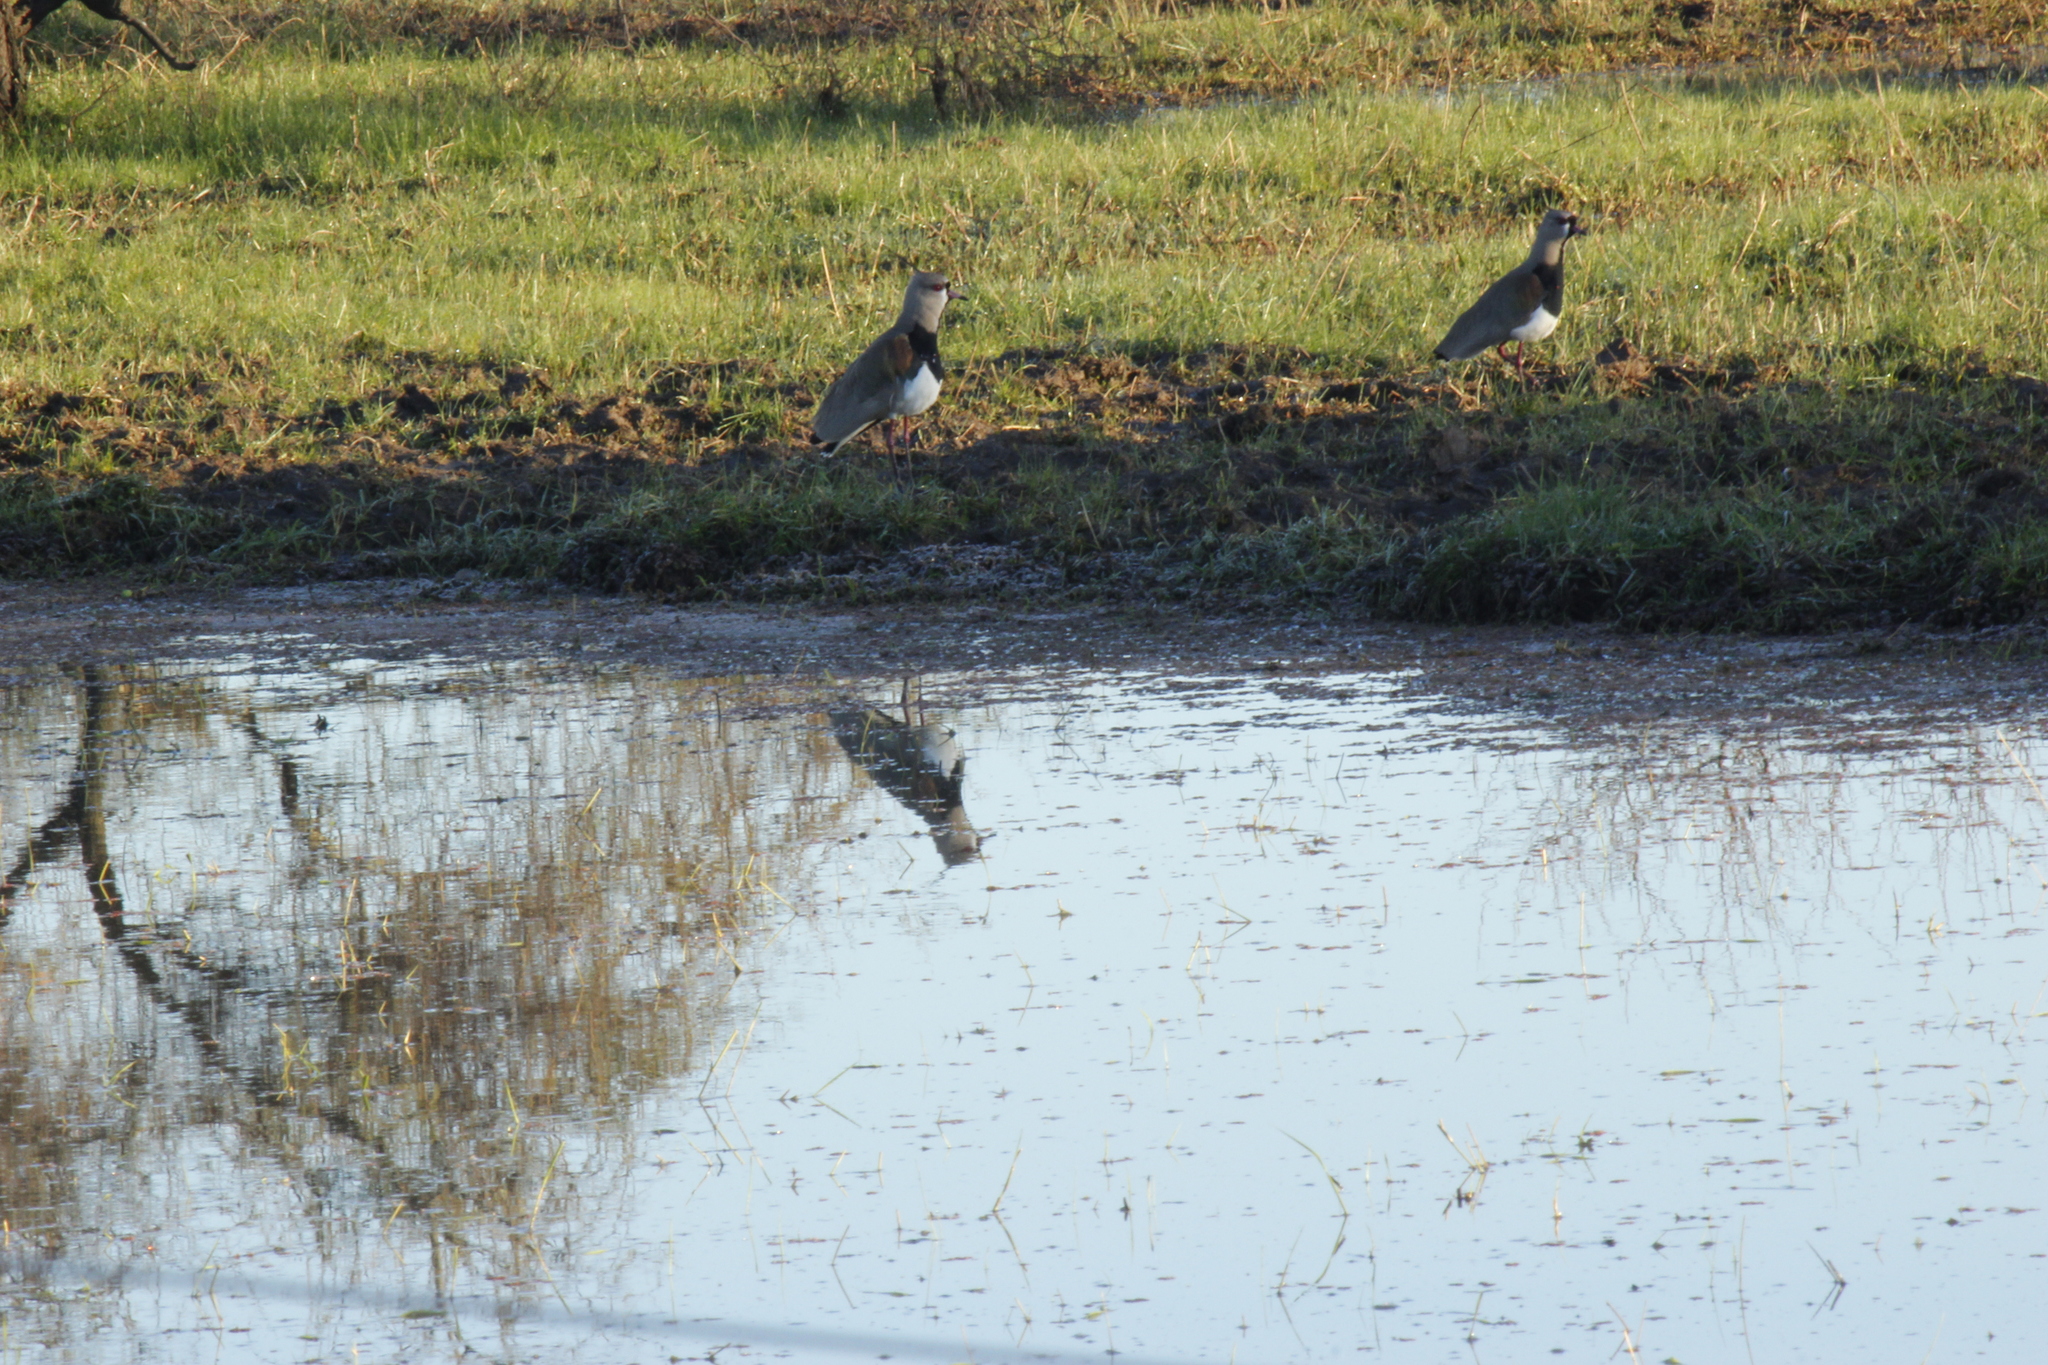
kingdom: Animalia
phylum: Chordata
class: Aves
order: Charadriiformes
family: Charadriidae
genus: Vanellus
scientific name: Vanellus chilensis
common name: Southern lapwing
